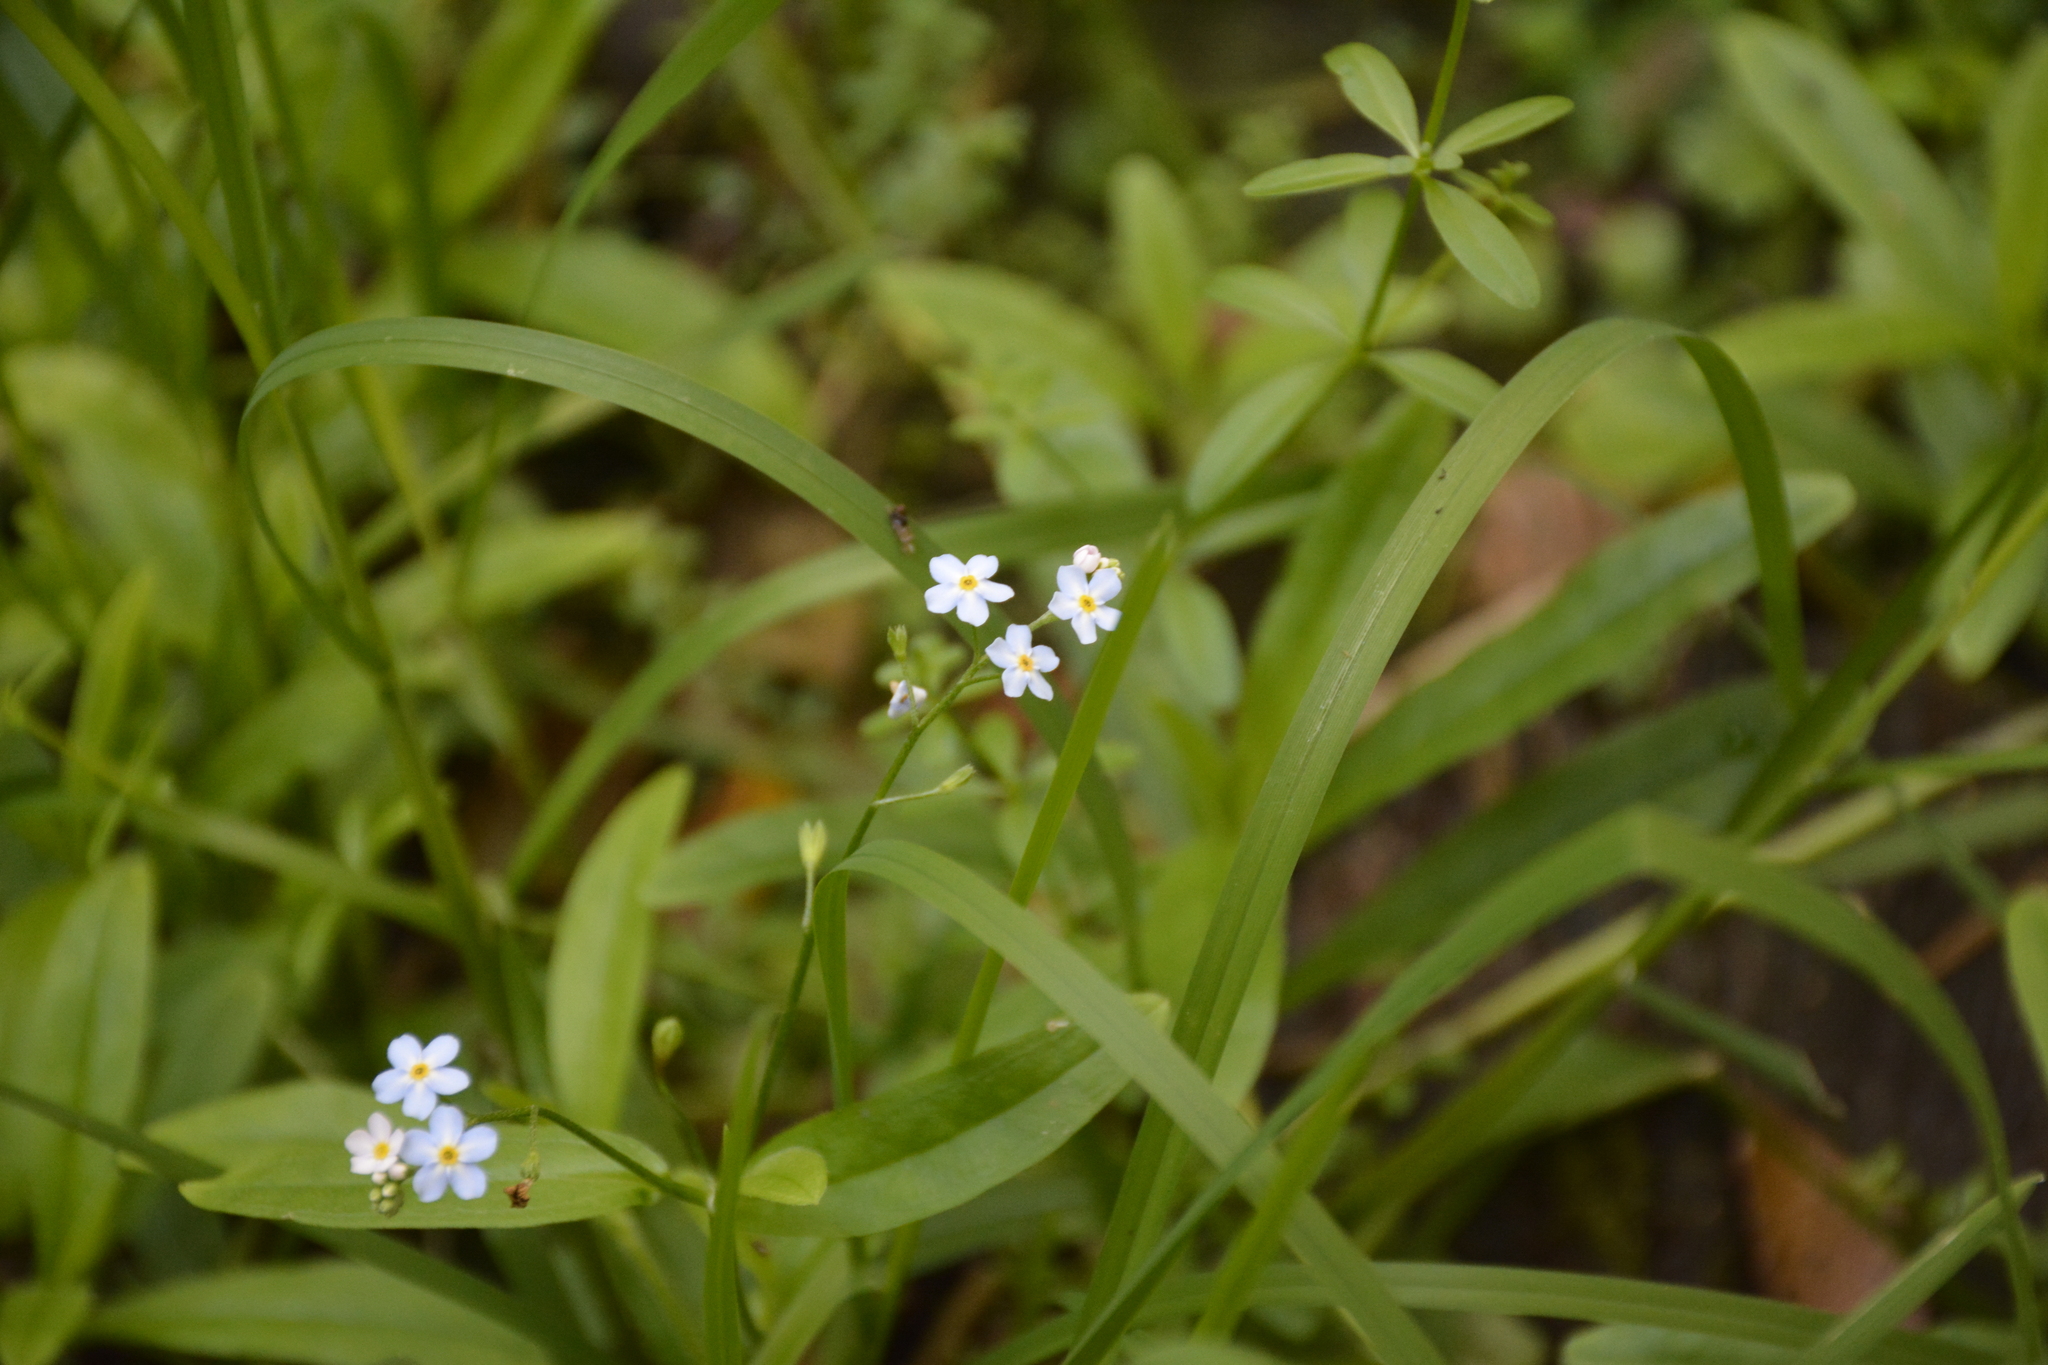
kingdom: Plantae
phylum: Tracheophyta
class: Magnoliopsida
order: Boraginales
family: Boraginaceae
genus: Myosotis
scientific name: Myosotis scorpioides
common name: Water forget-me-not
